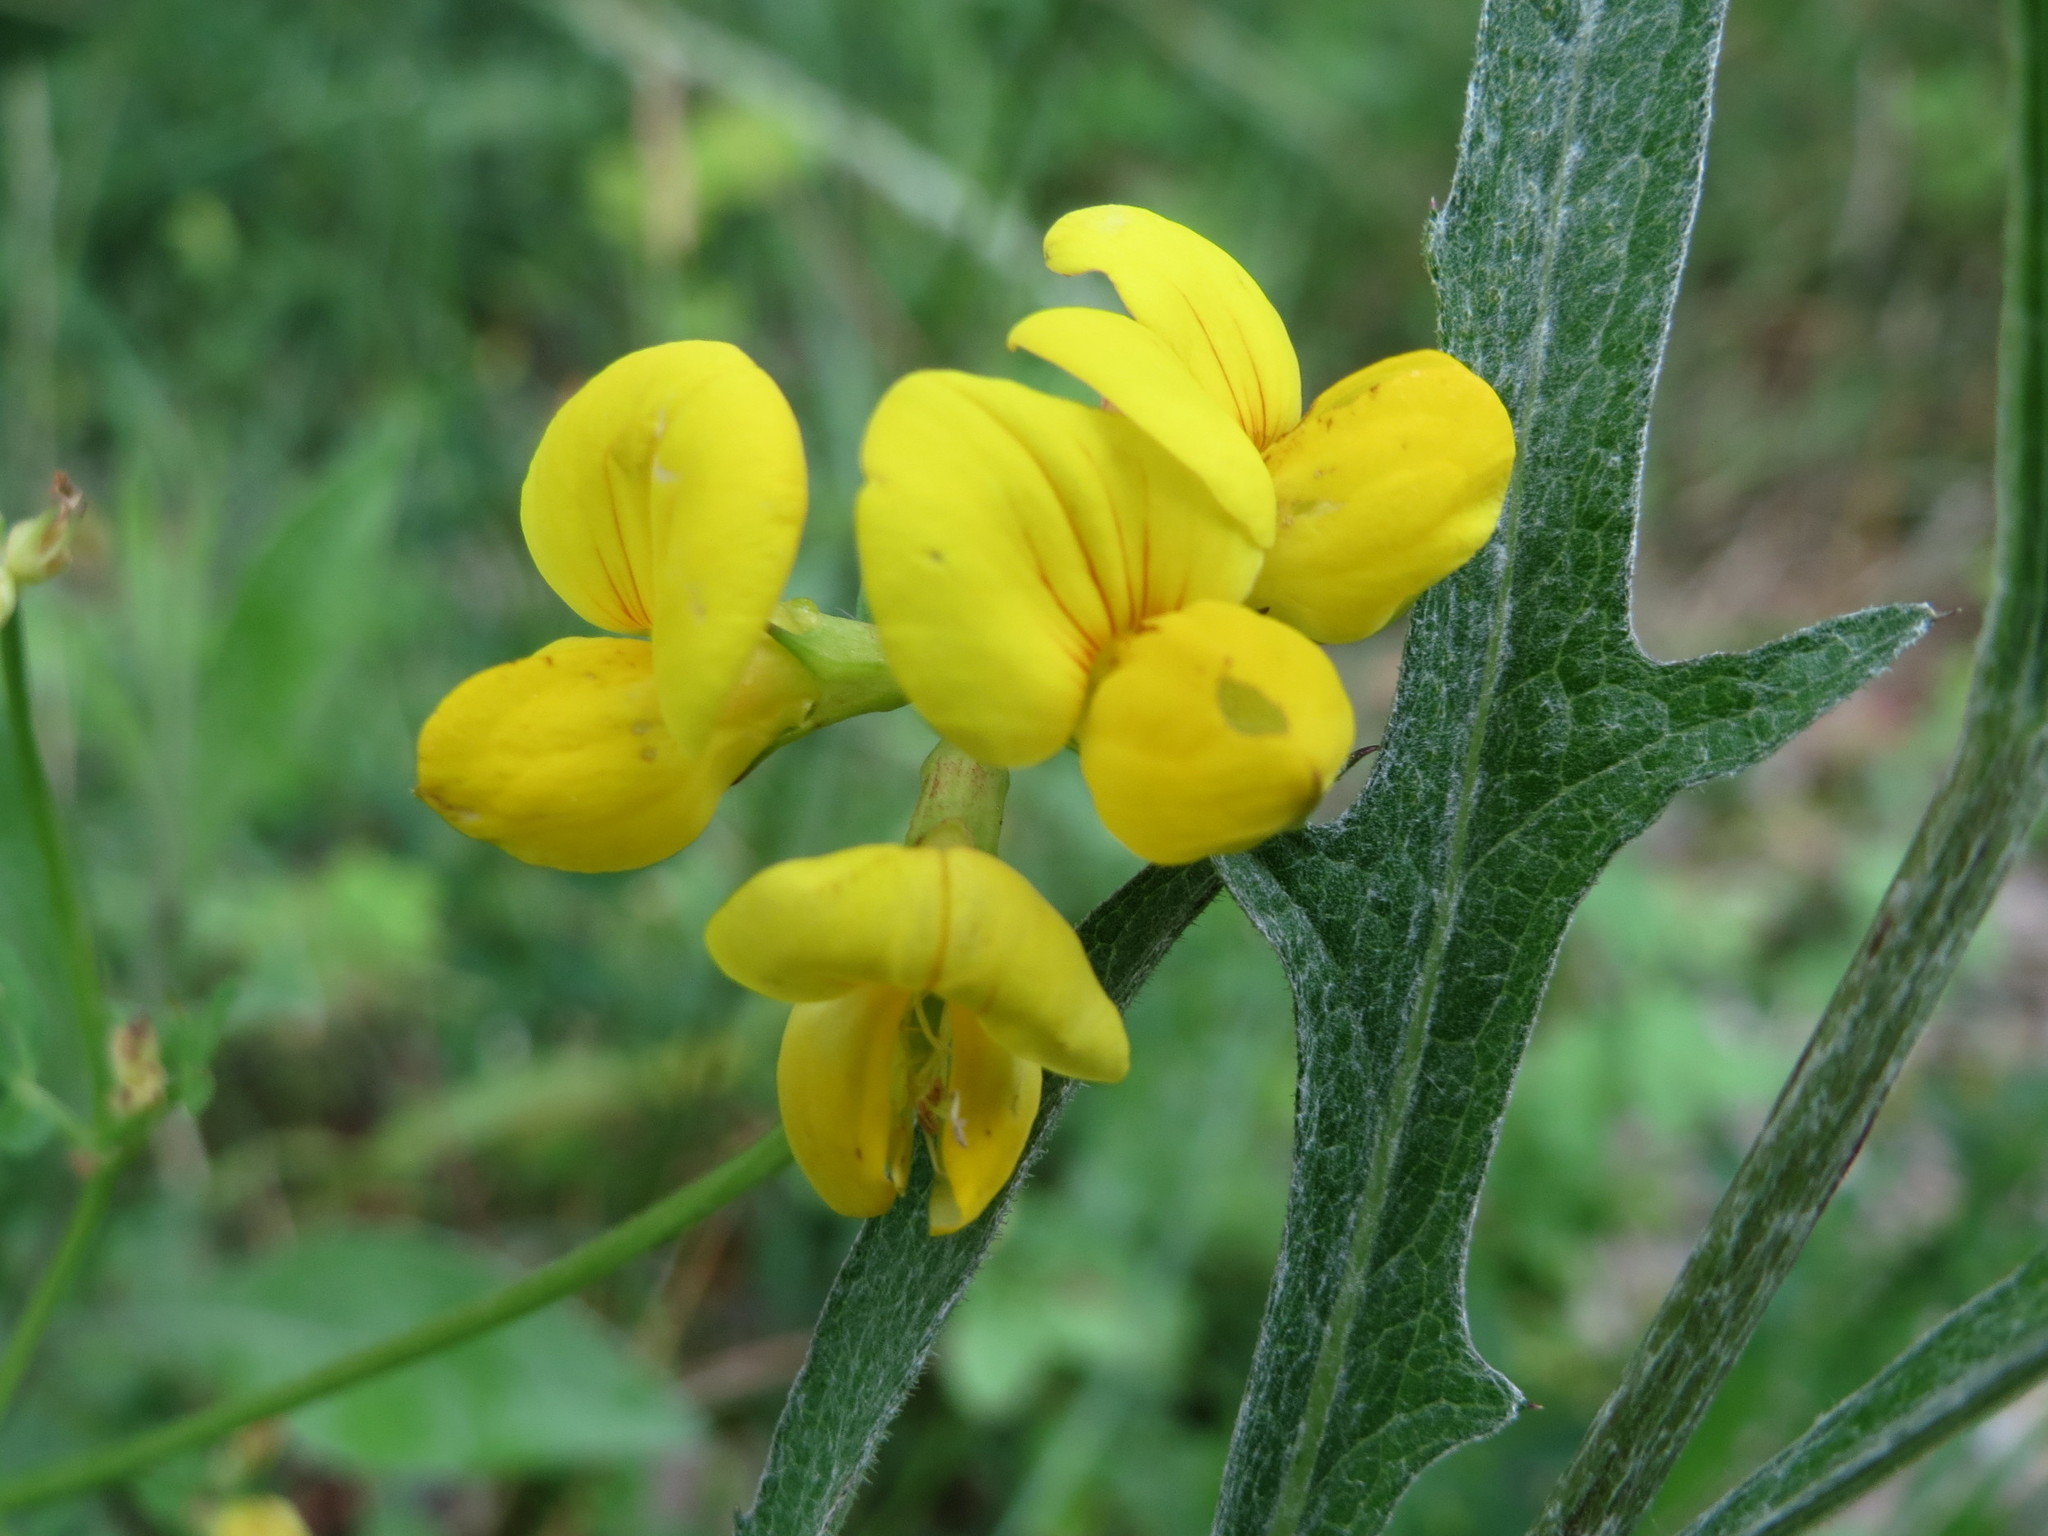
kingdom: Plantae
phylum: Tracheophyta
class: Magnoliopsida
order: Fabales
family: Fabaceae
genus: Lotus
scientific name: Lotus corniculatus
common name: Common bird's-foot-trefoil
